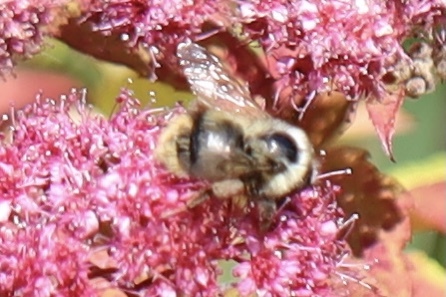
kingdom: Animalia
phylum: Arthropoda
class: Insecta
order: Hymenoptera
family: Apidae
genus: Bombus
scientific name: Bombus mixtus
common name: Fuzzy-horned bumble bee
